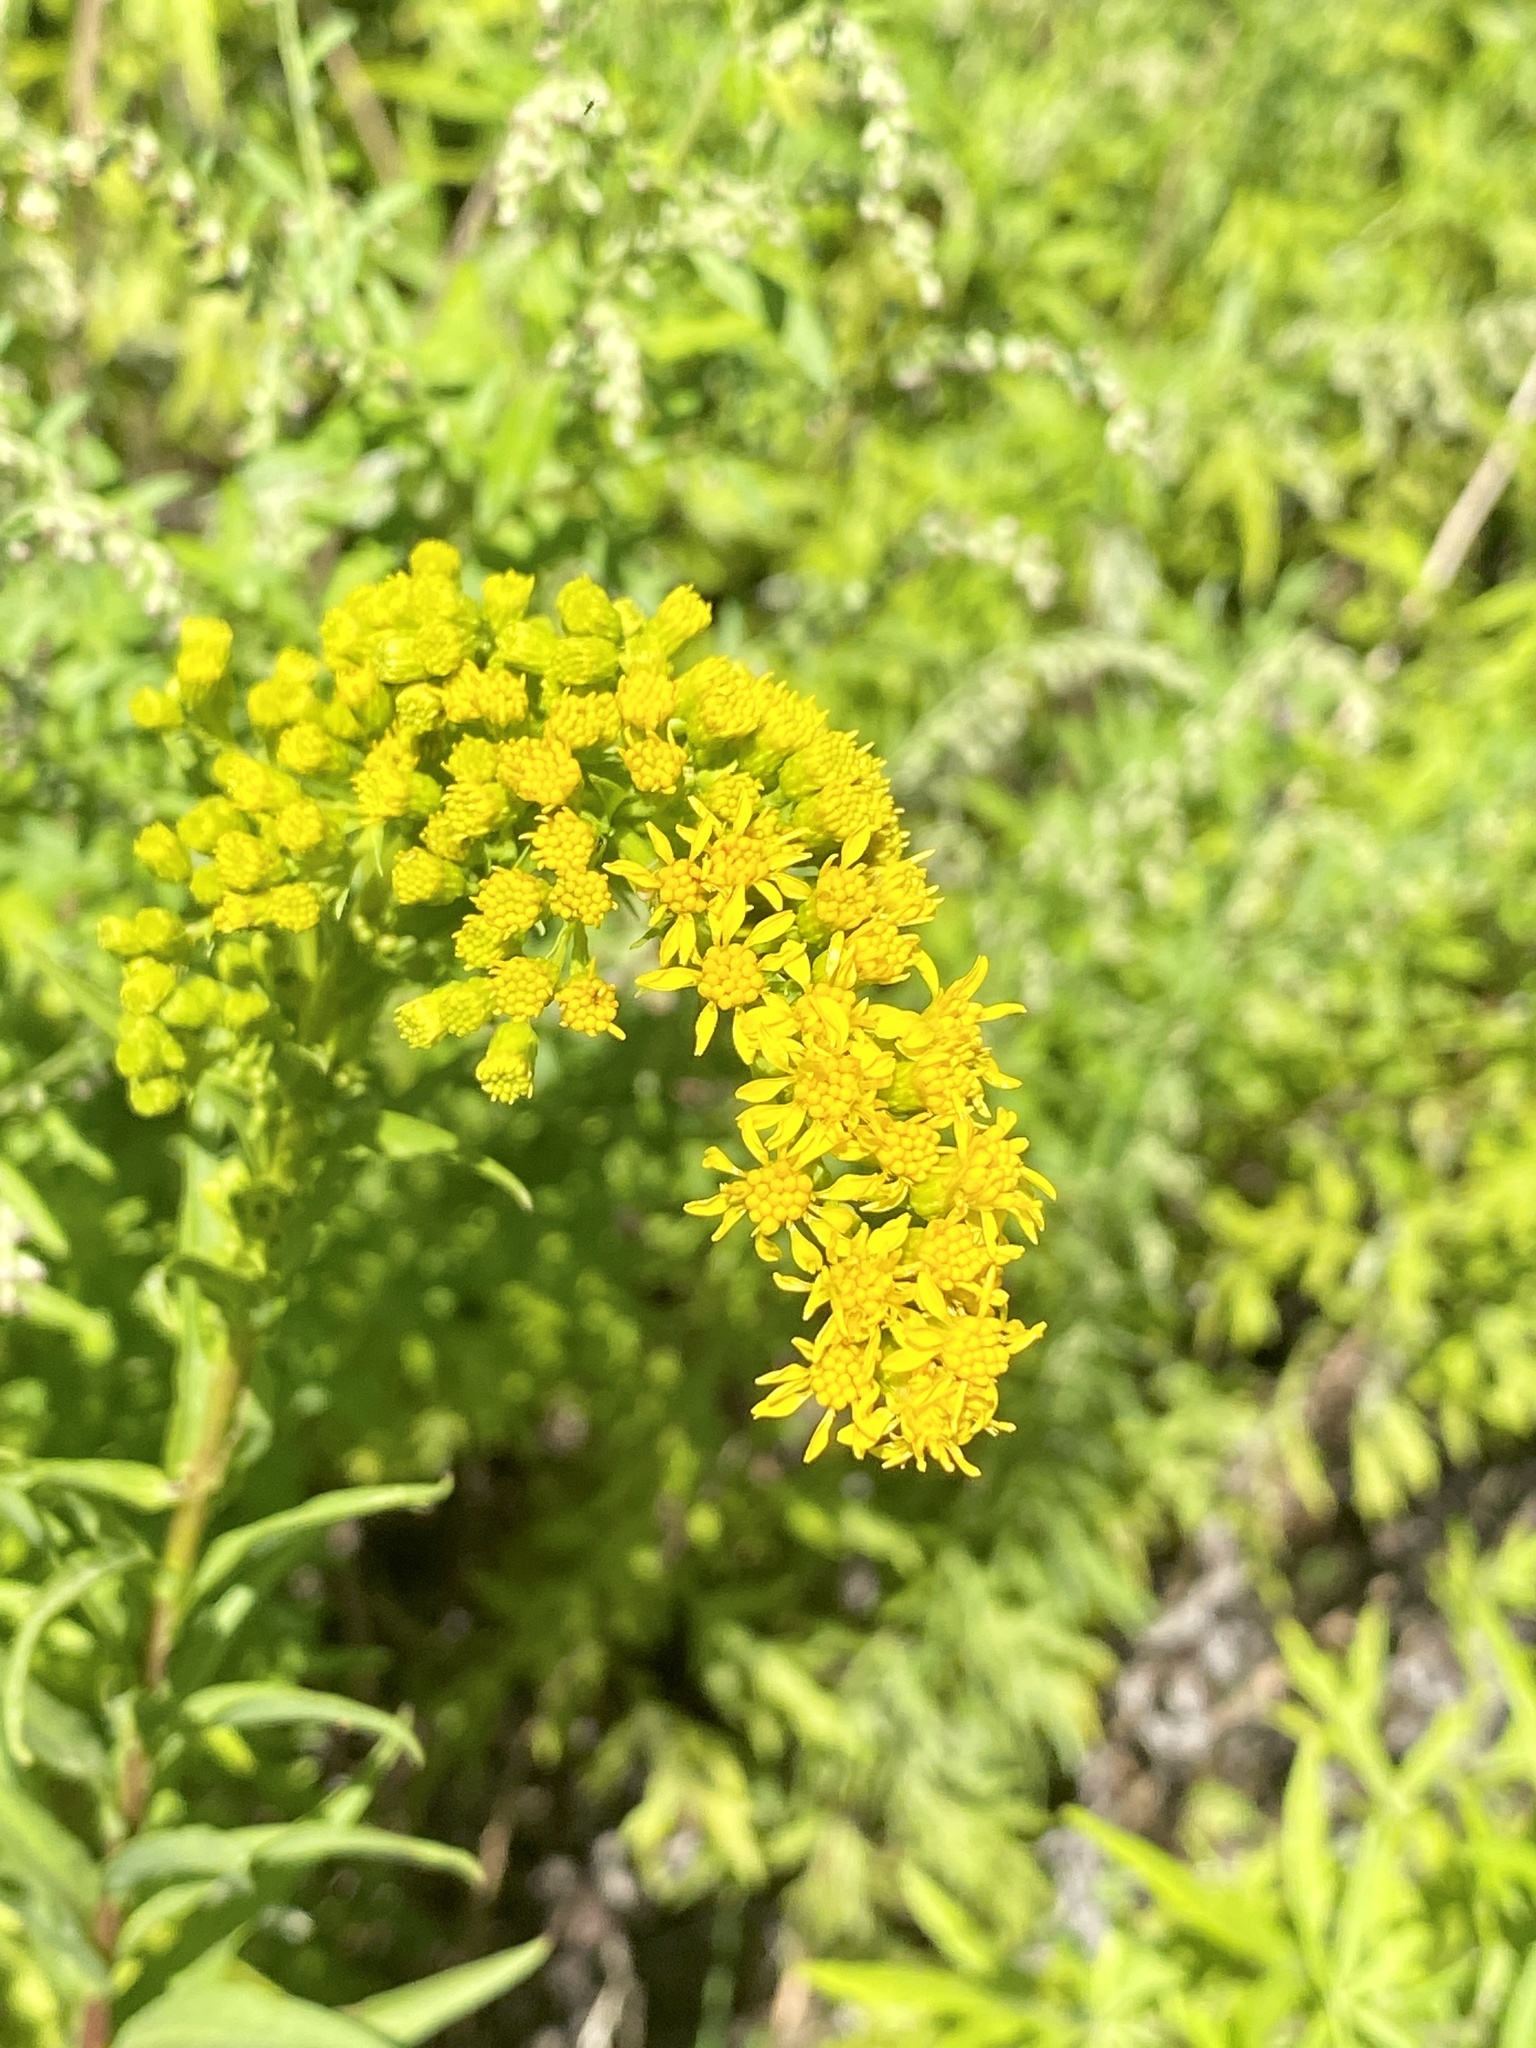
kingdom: Plantae
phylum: Tracheophyta
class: Magnoliopsida
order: Asterales
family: Asteraceae
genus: Solidago
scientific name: Solidago sempervirens
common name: Salt-marsh goldenrod
